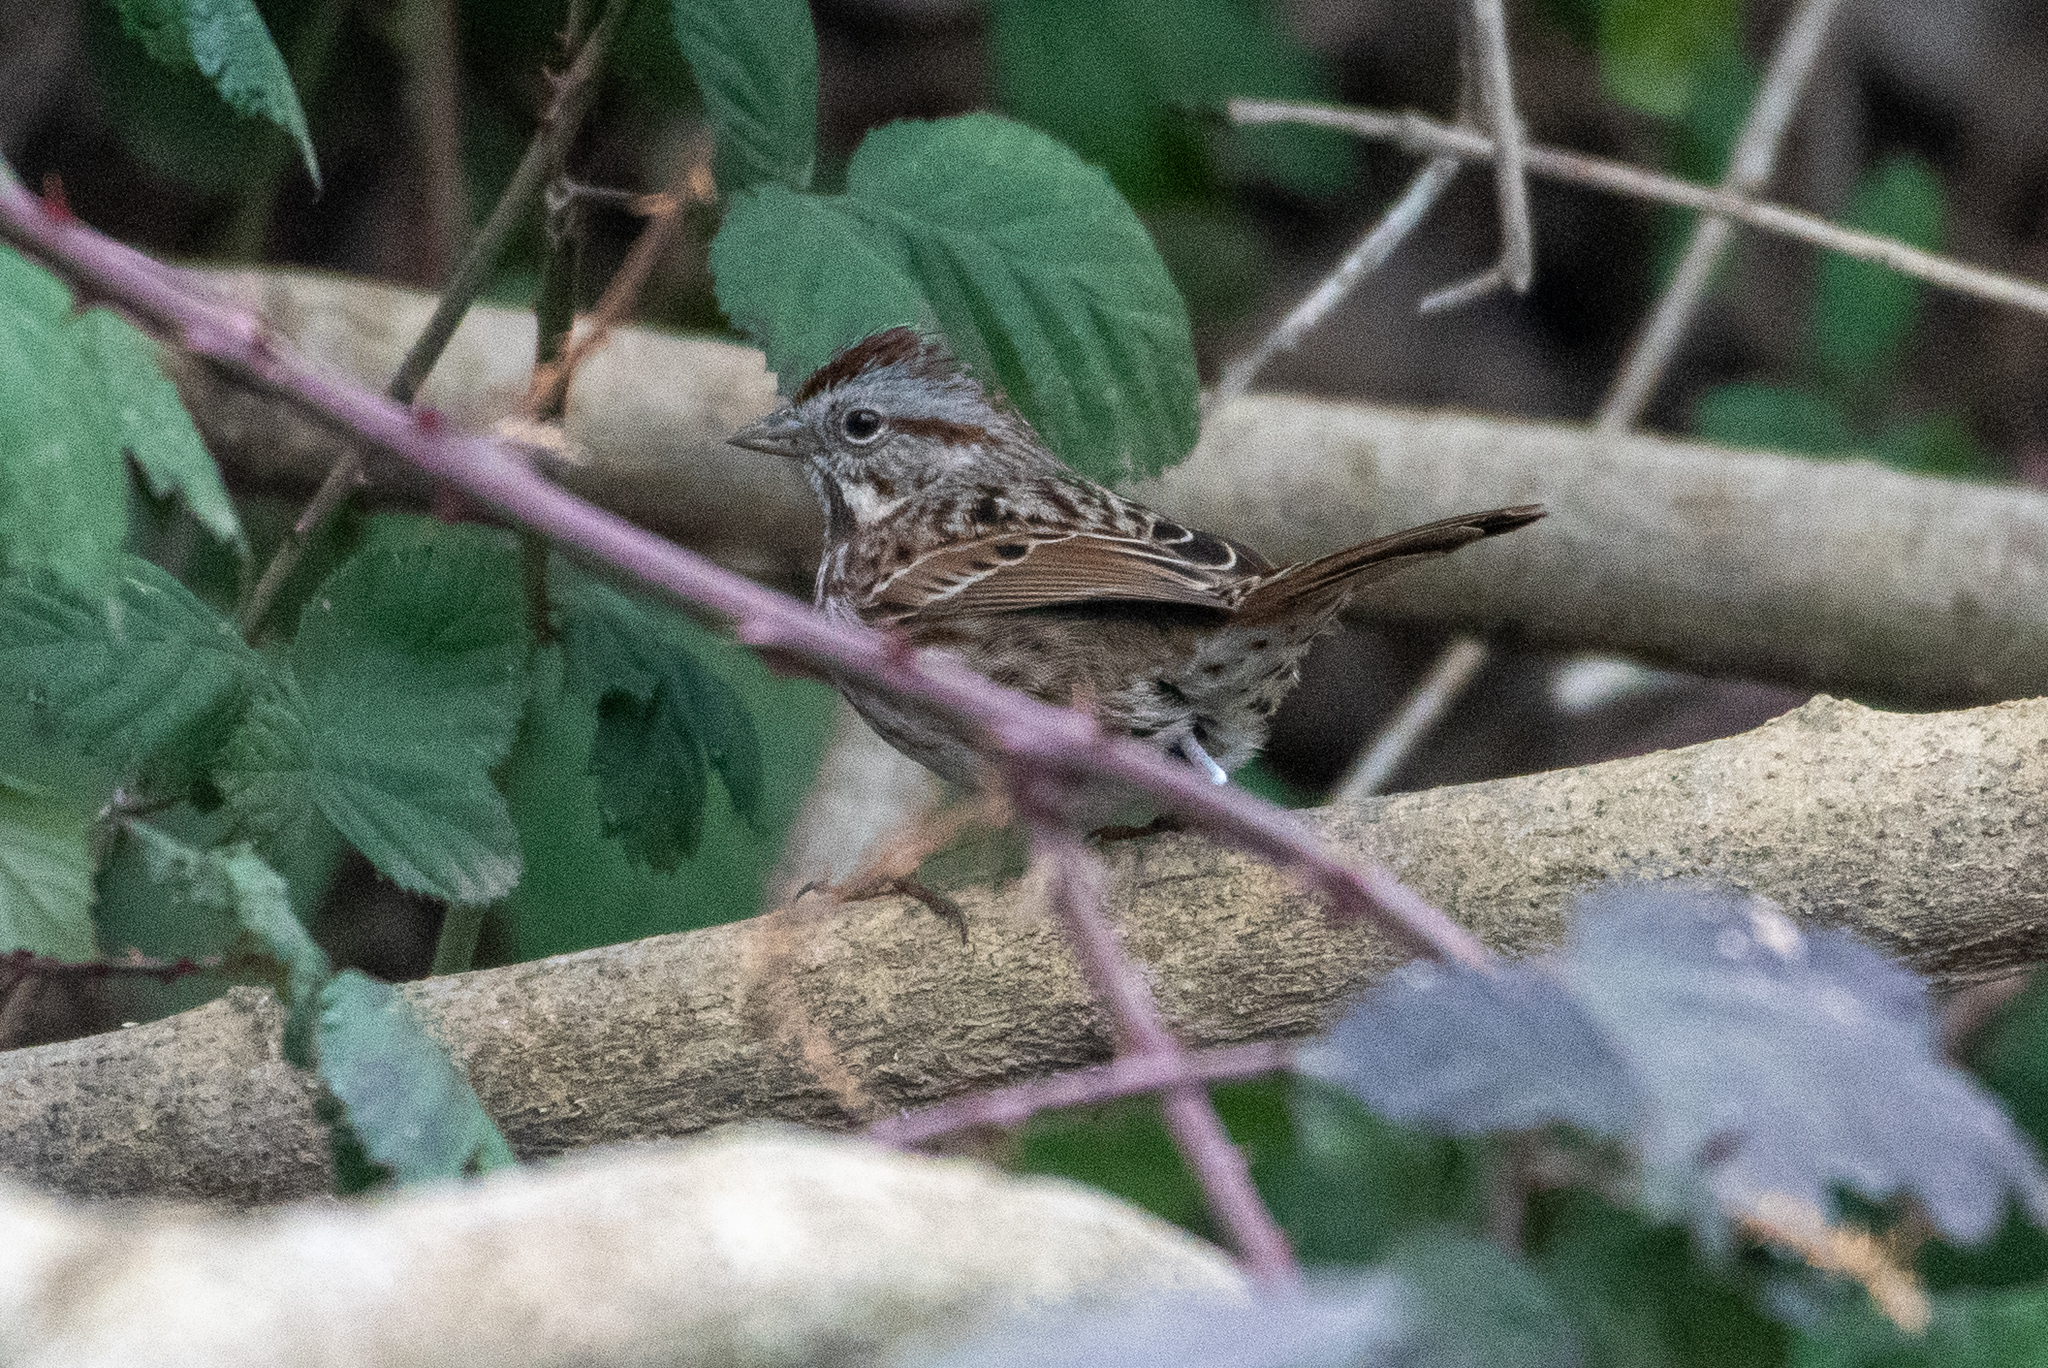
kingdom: Animalia
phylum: Chordata
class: Aves
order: Passeriformes
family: Passerellidae
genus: Melospiza
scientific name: Melospiza melodia
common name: Song sparrow
